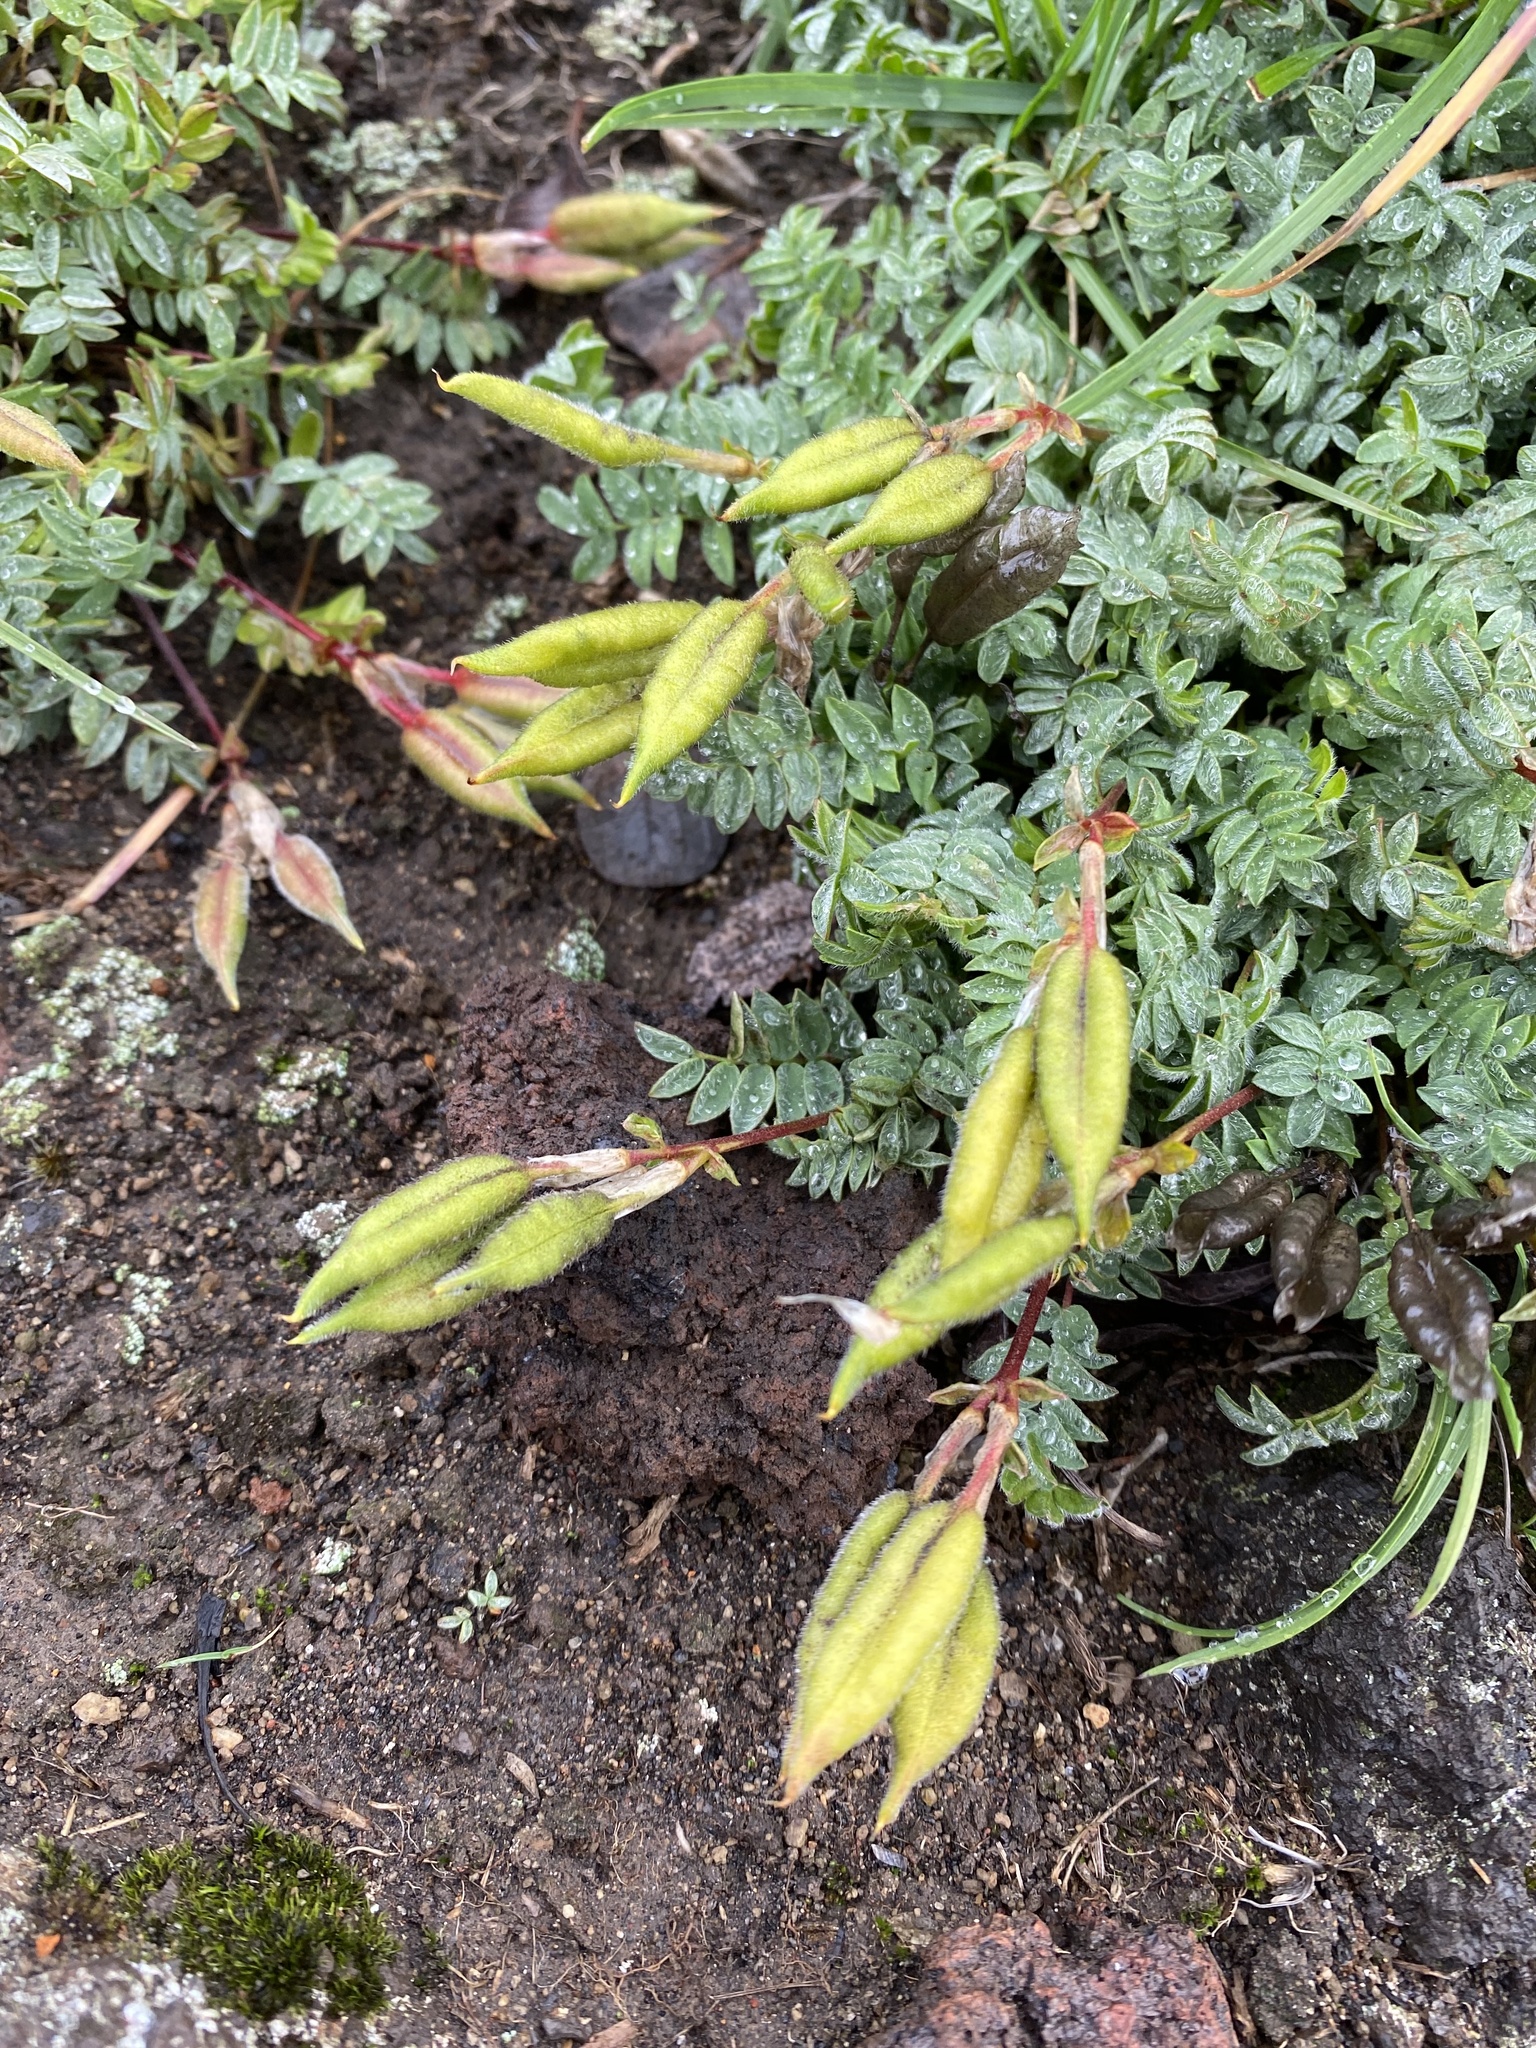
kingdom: Plantae
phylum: Tracheophyta
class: Magnoliopsida
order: Fabales
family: Fabaceae
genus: Oxytropis
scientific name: Oxytropis revoluta
